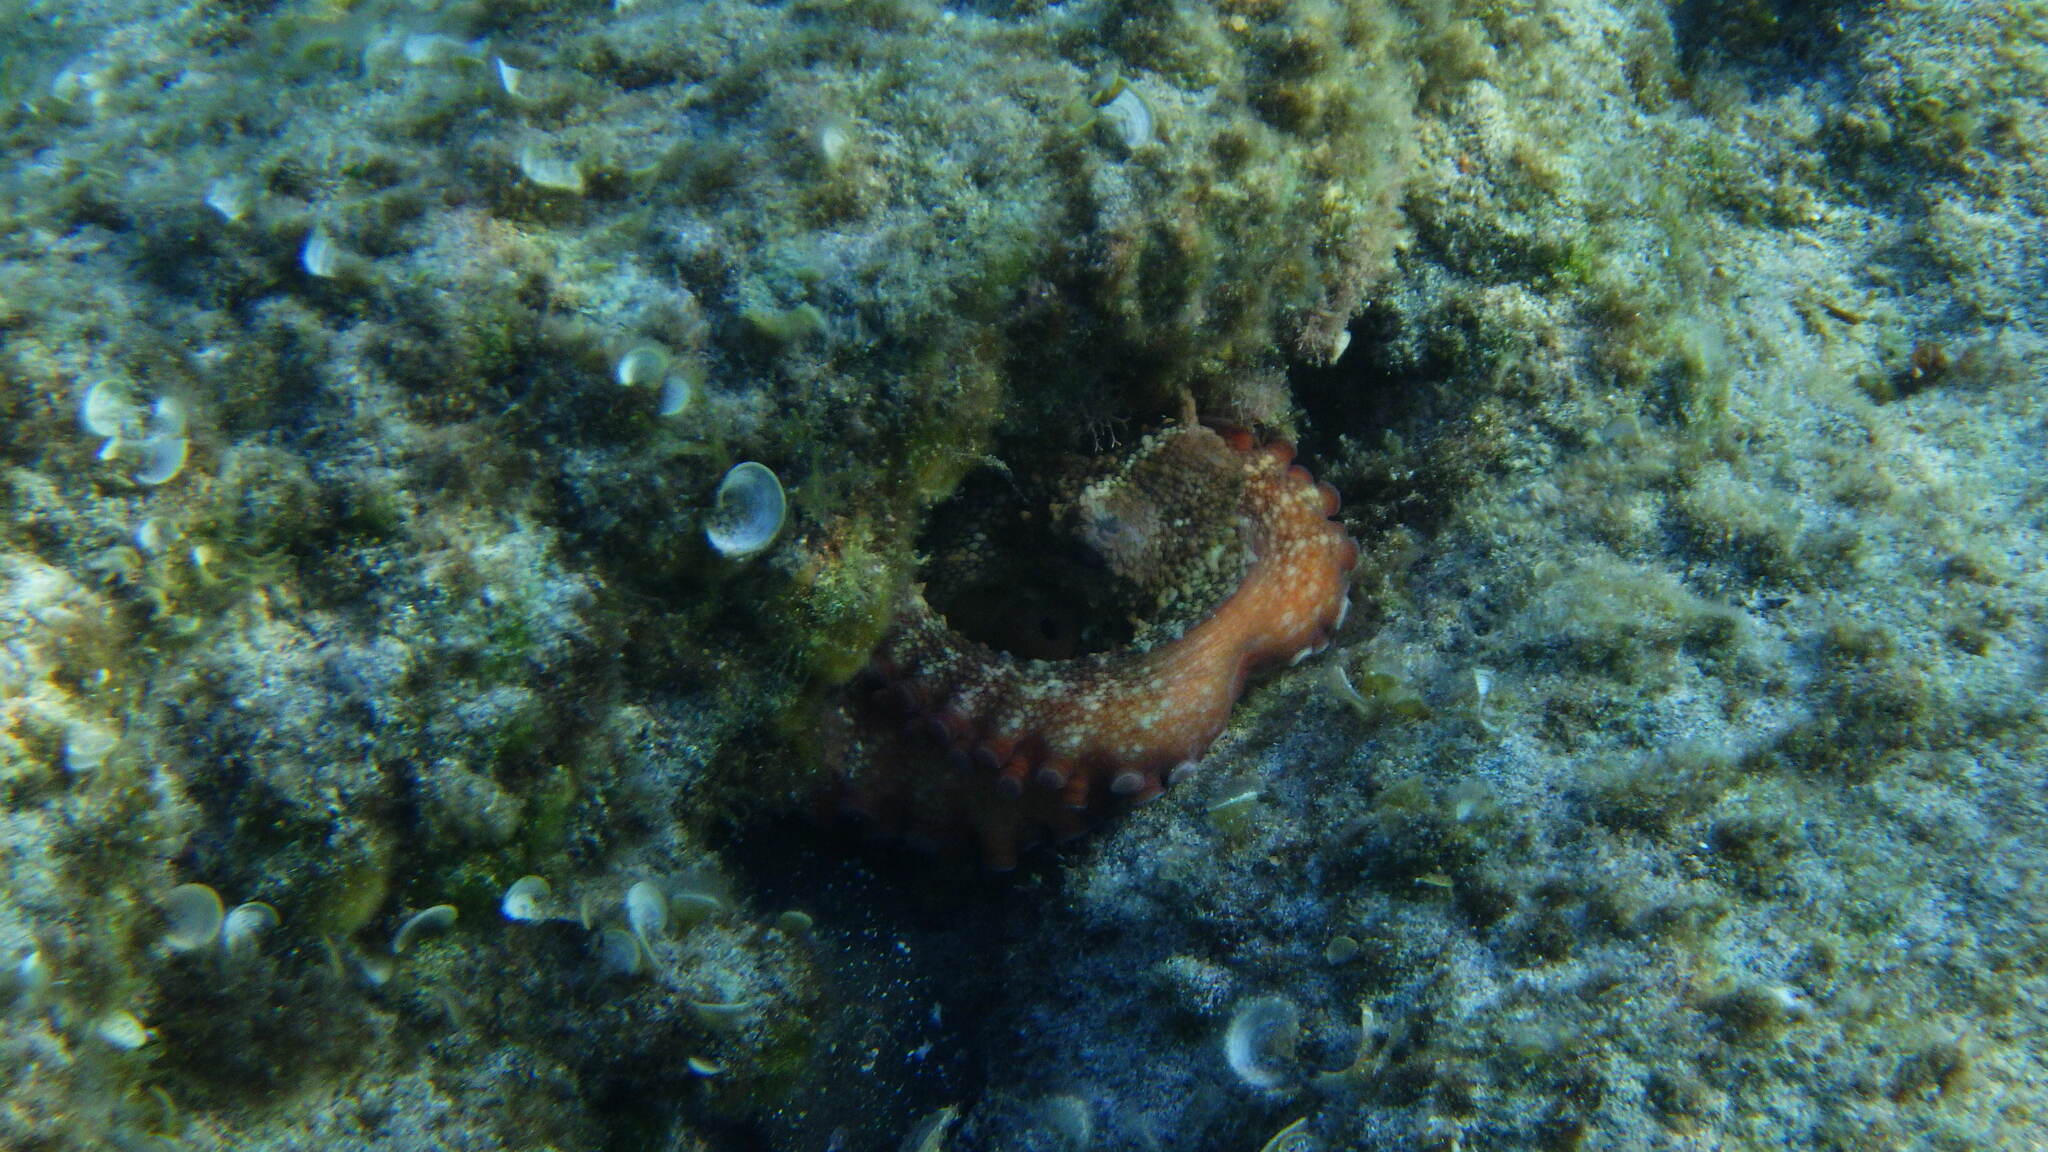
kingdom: Animalia
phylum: Mollusca
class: Cephalopoda
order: Octopoda
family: Octopodidae
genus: Octopus
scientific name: Octopus vulgaris
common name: Common octopus
